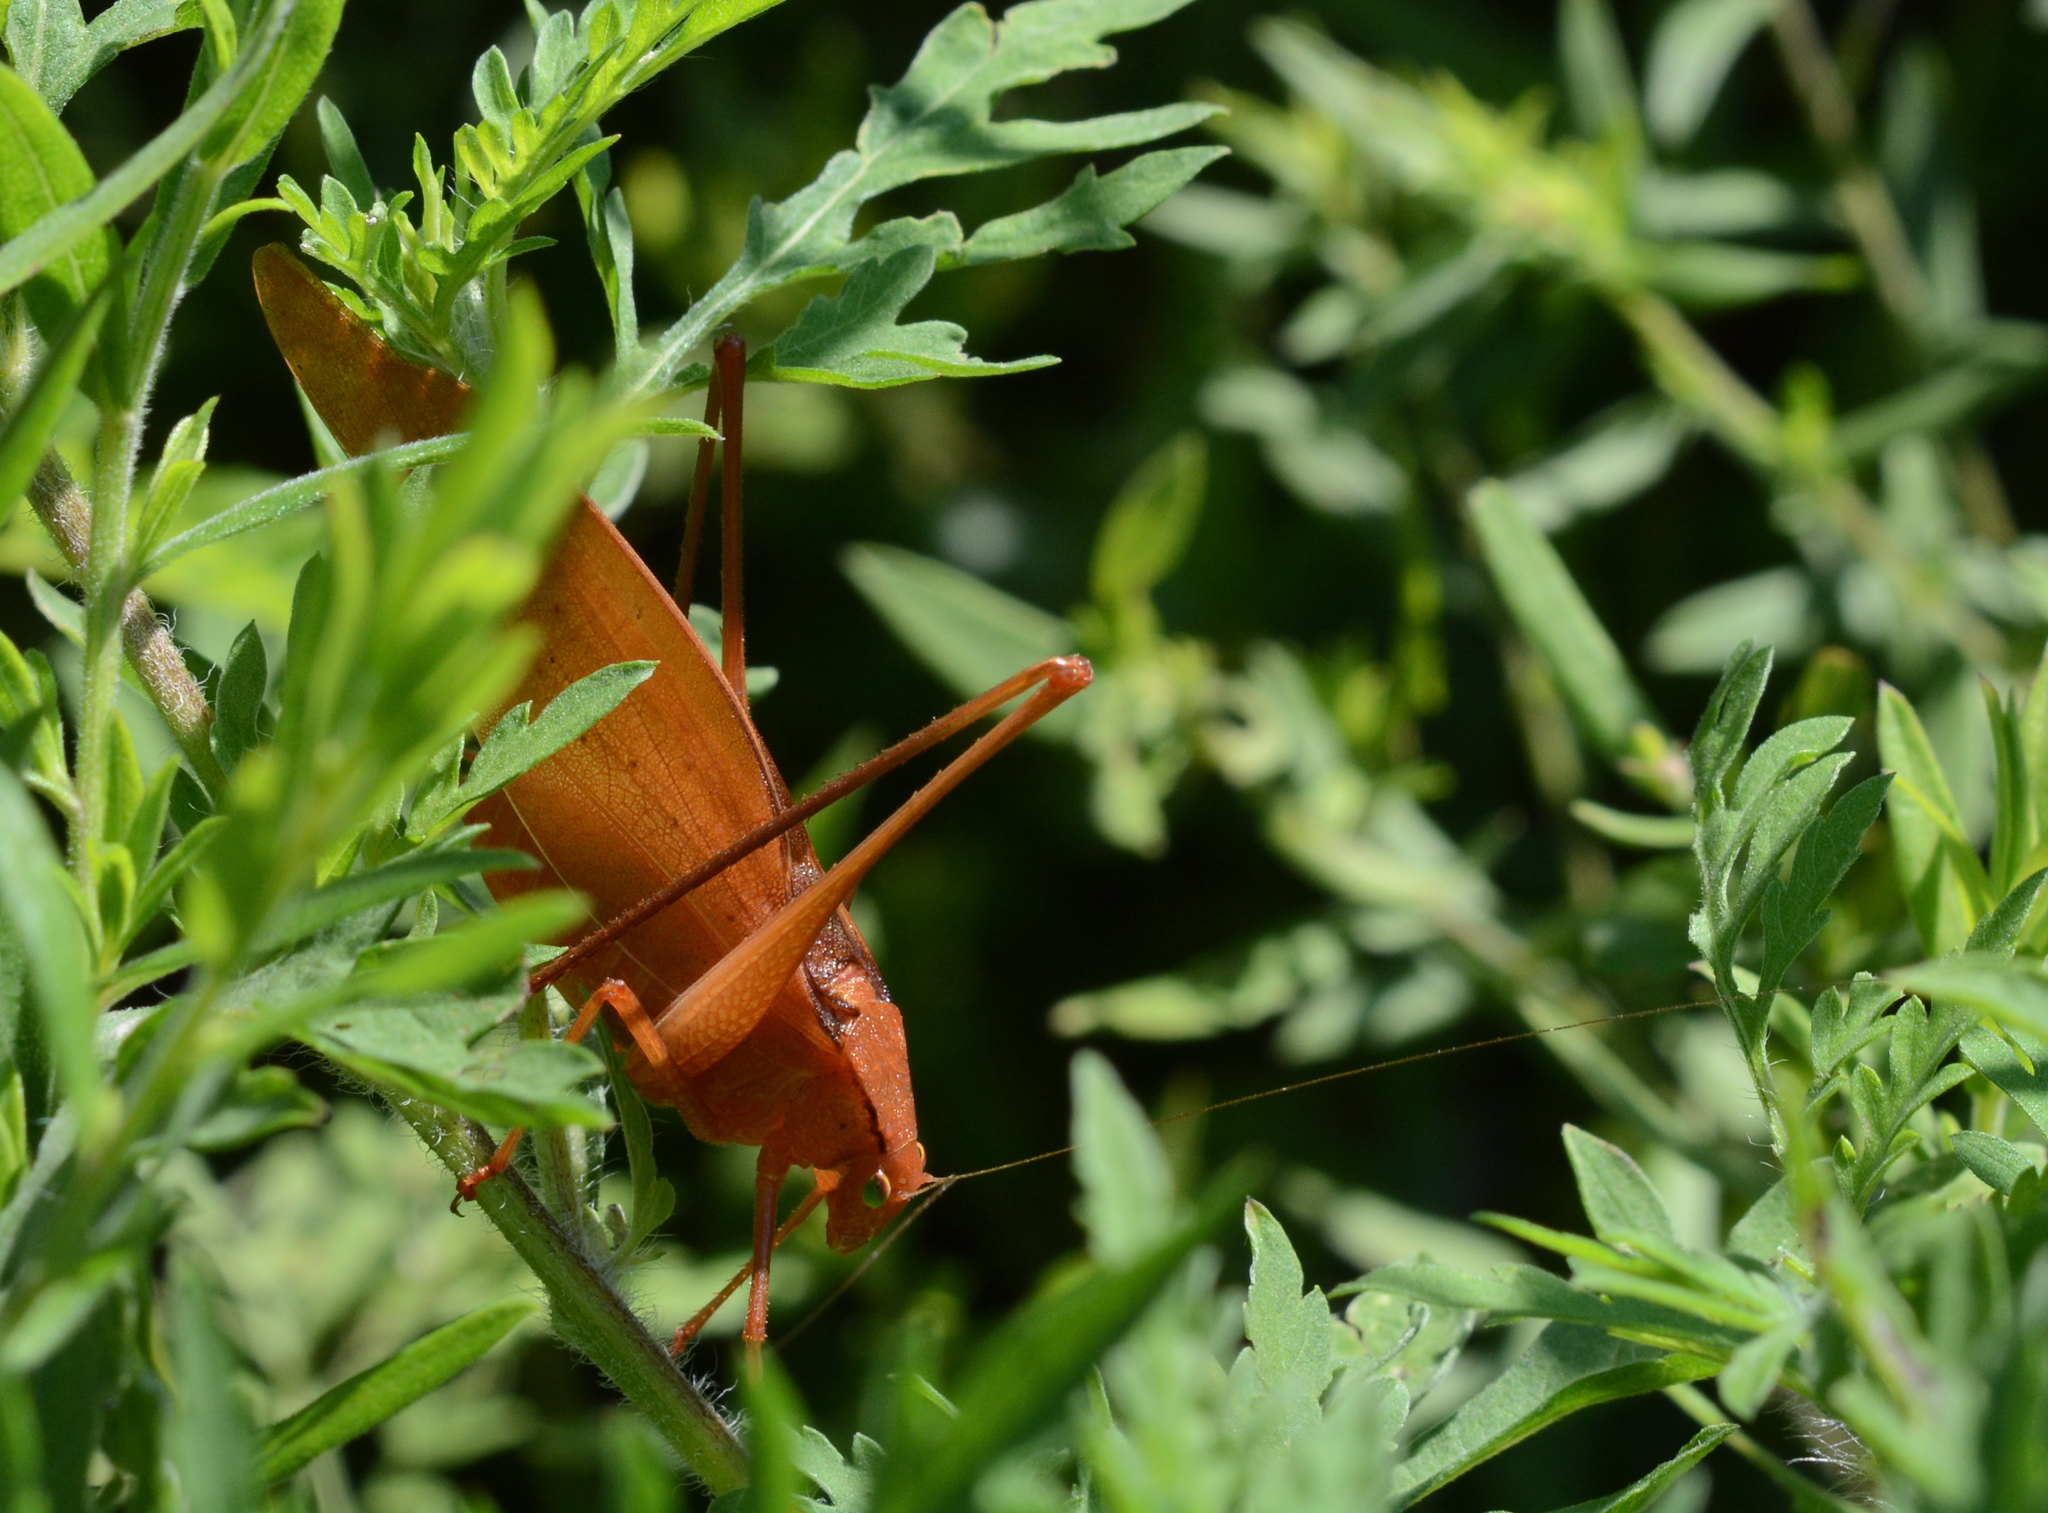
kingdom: Animalia
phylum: Arthropoda
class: Insecta
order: Orthoptera
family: Tettigoniidae
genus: Amblycorypha
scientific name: Amblycorypha oblongifolia
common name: Oblong-winged katydid
